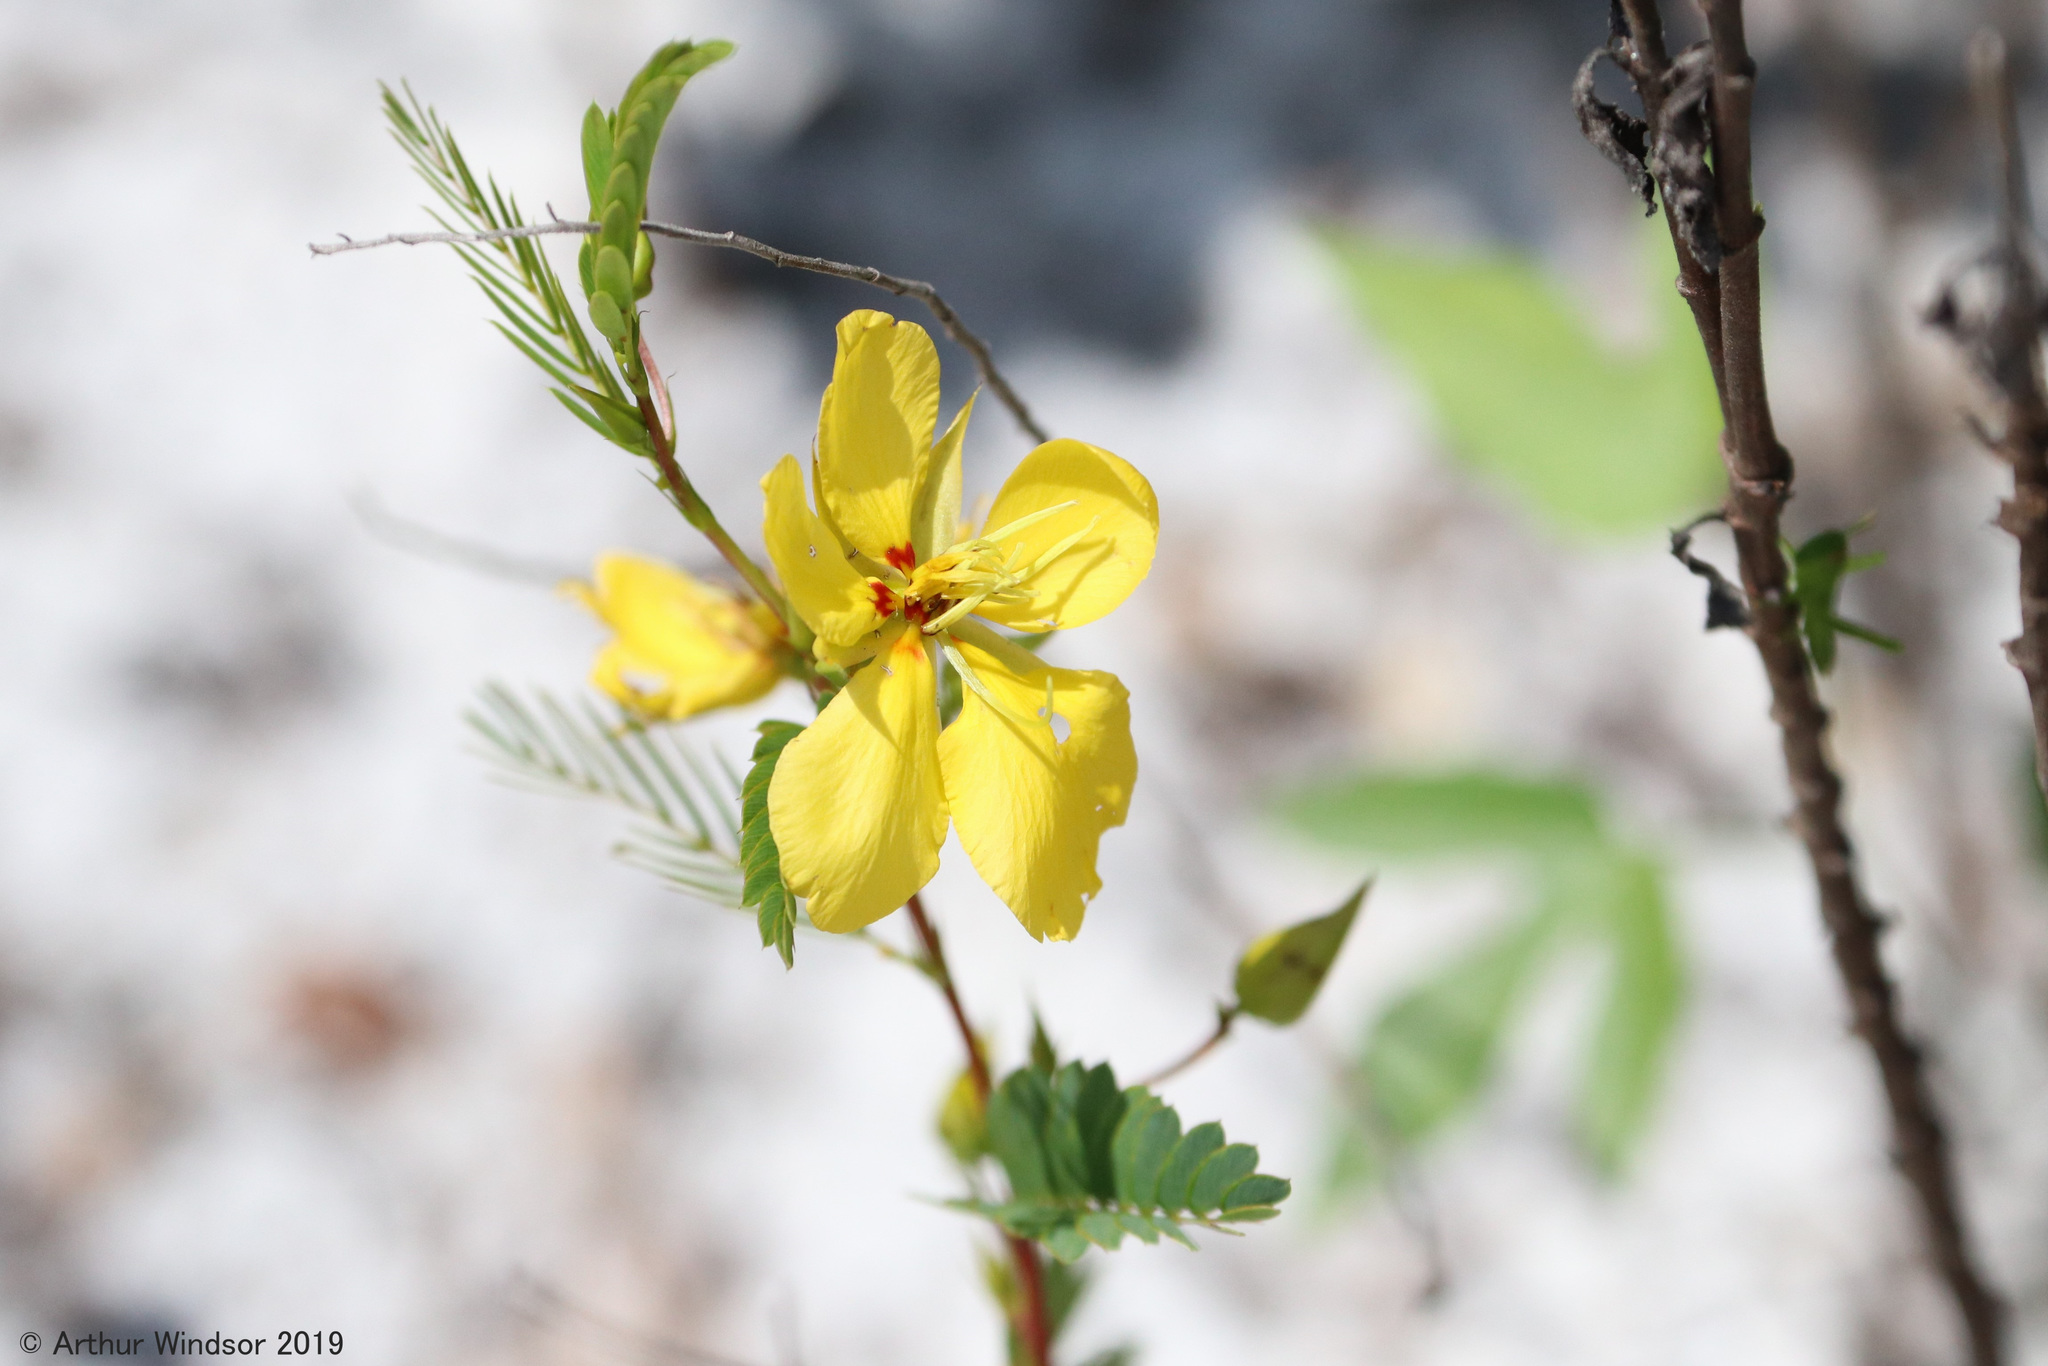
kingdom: Plantae
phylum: Tracheophyta
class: Magnoliopsida
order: Fabales
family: Fabaceae
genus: Chamaecrista
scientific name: Chamaecrista fasciculata
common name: Golden cassia
